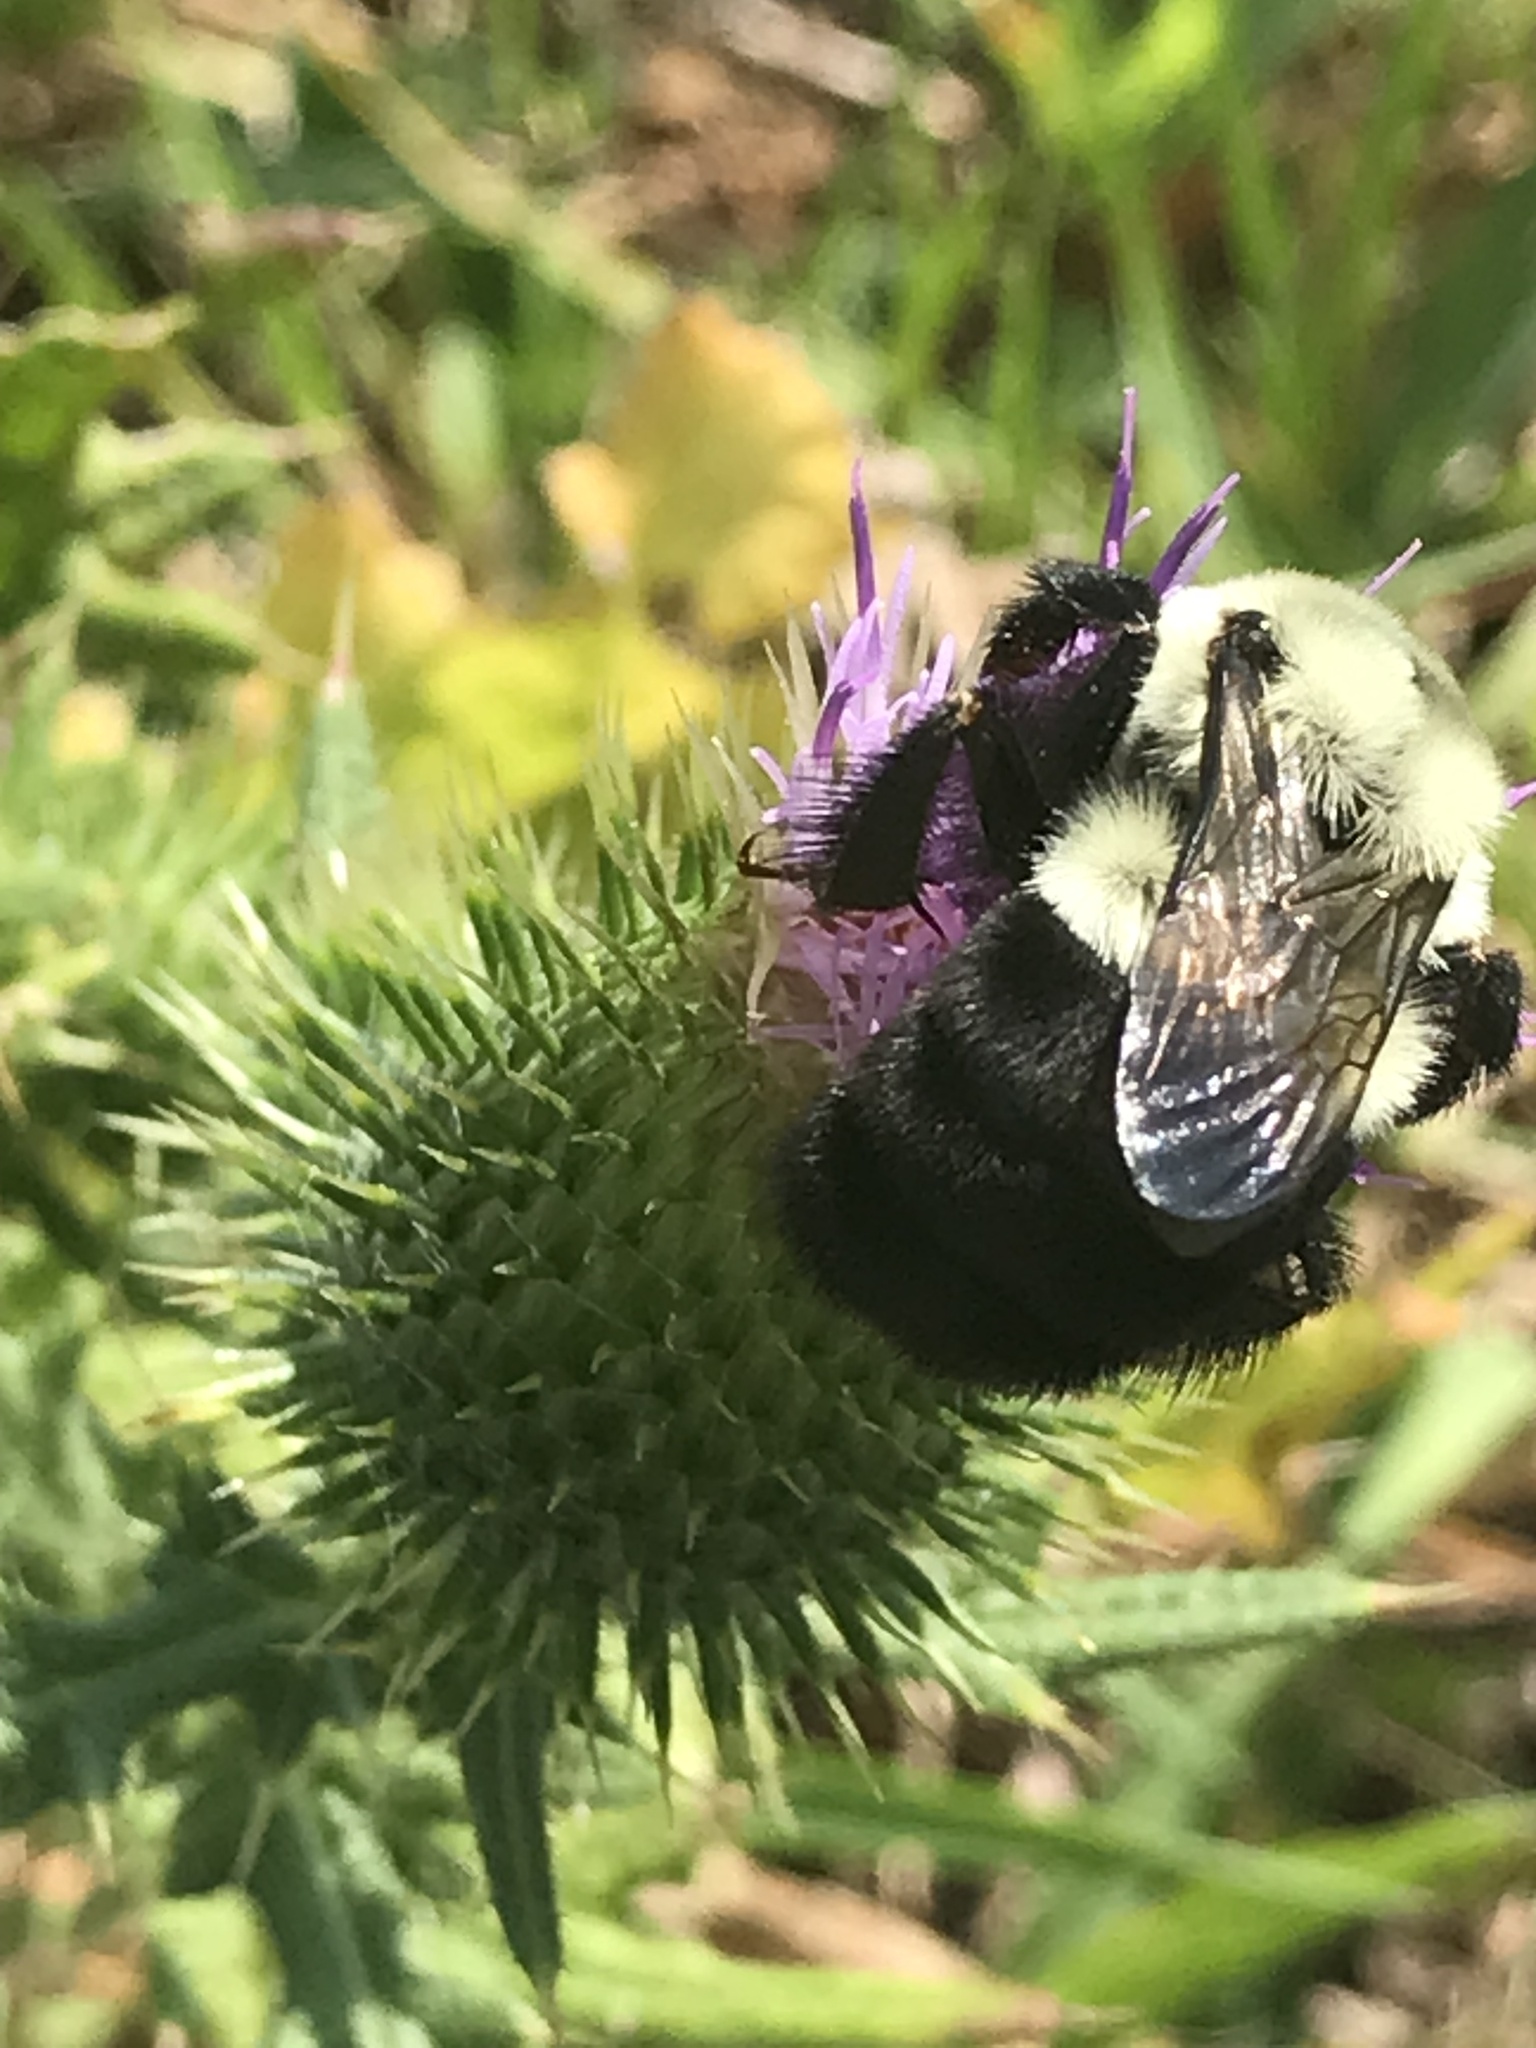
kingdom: Animalia
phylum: Arthropoda
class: Insecta
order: Hymenoptera
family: Apidae
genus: Bombus
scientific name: Bombus impatiens
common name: Common eastern bumble bee
